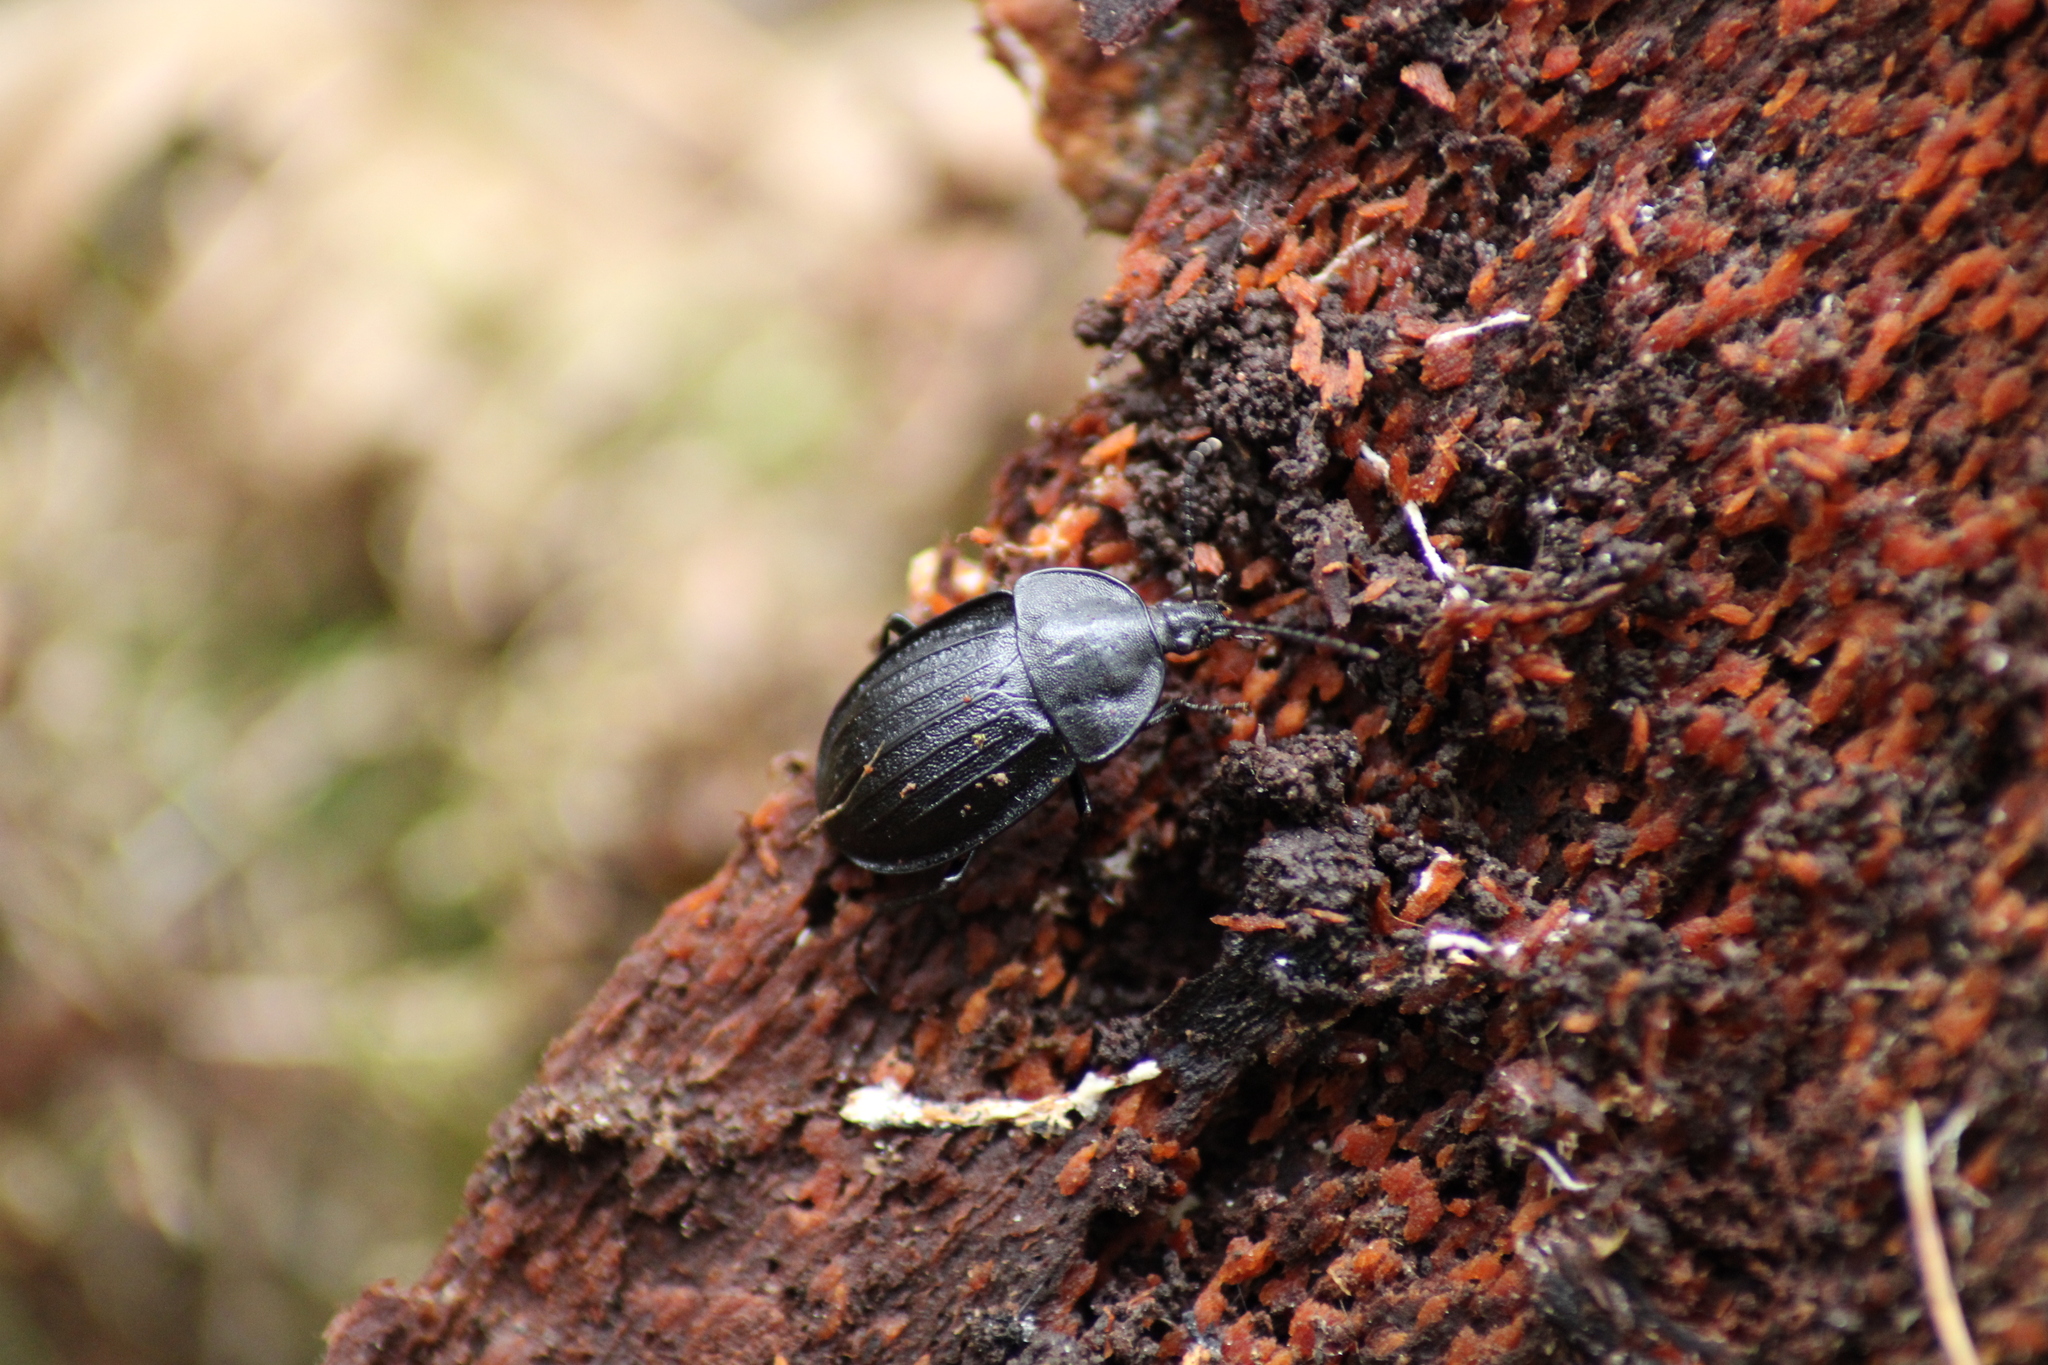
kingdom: Animalia
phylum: Arthropoda
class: Insecta
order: Coleoptera
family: Staphylinidae
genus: Silpha
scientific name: Silpha atrata
